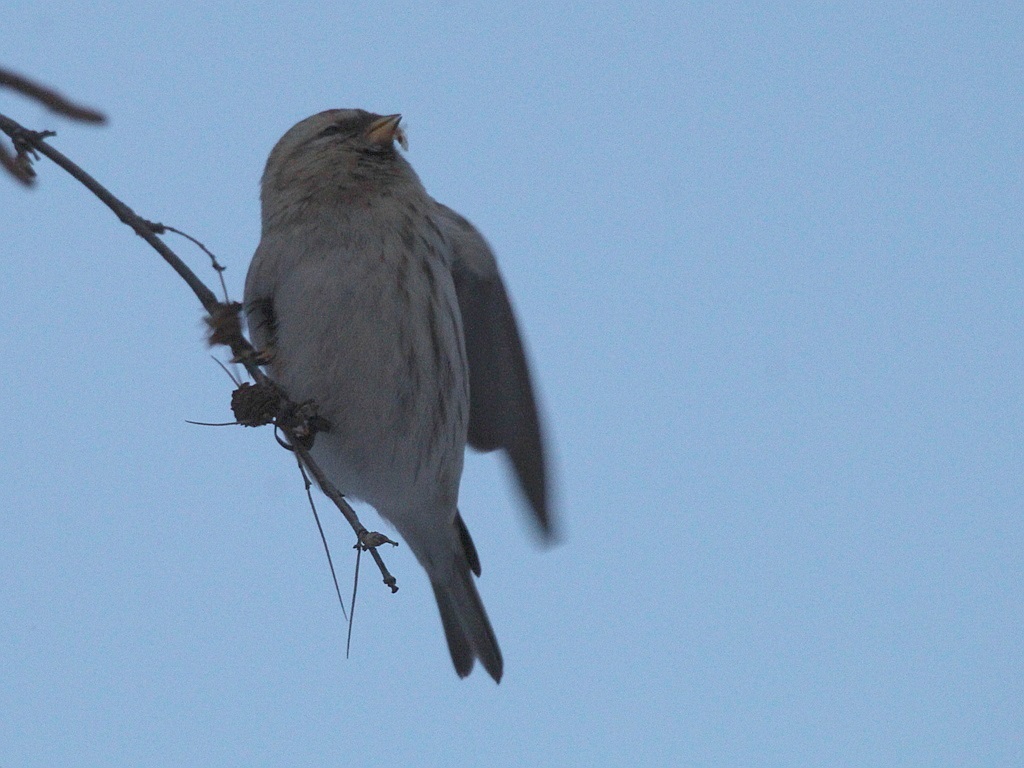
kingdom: Animalia
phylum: Chordata
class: Aves
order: Passeriformes
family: Fringillidae
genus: Acanthis
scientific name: Acanthis flammea
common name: Common redpoll
